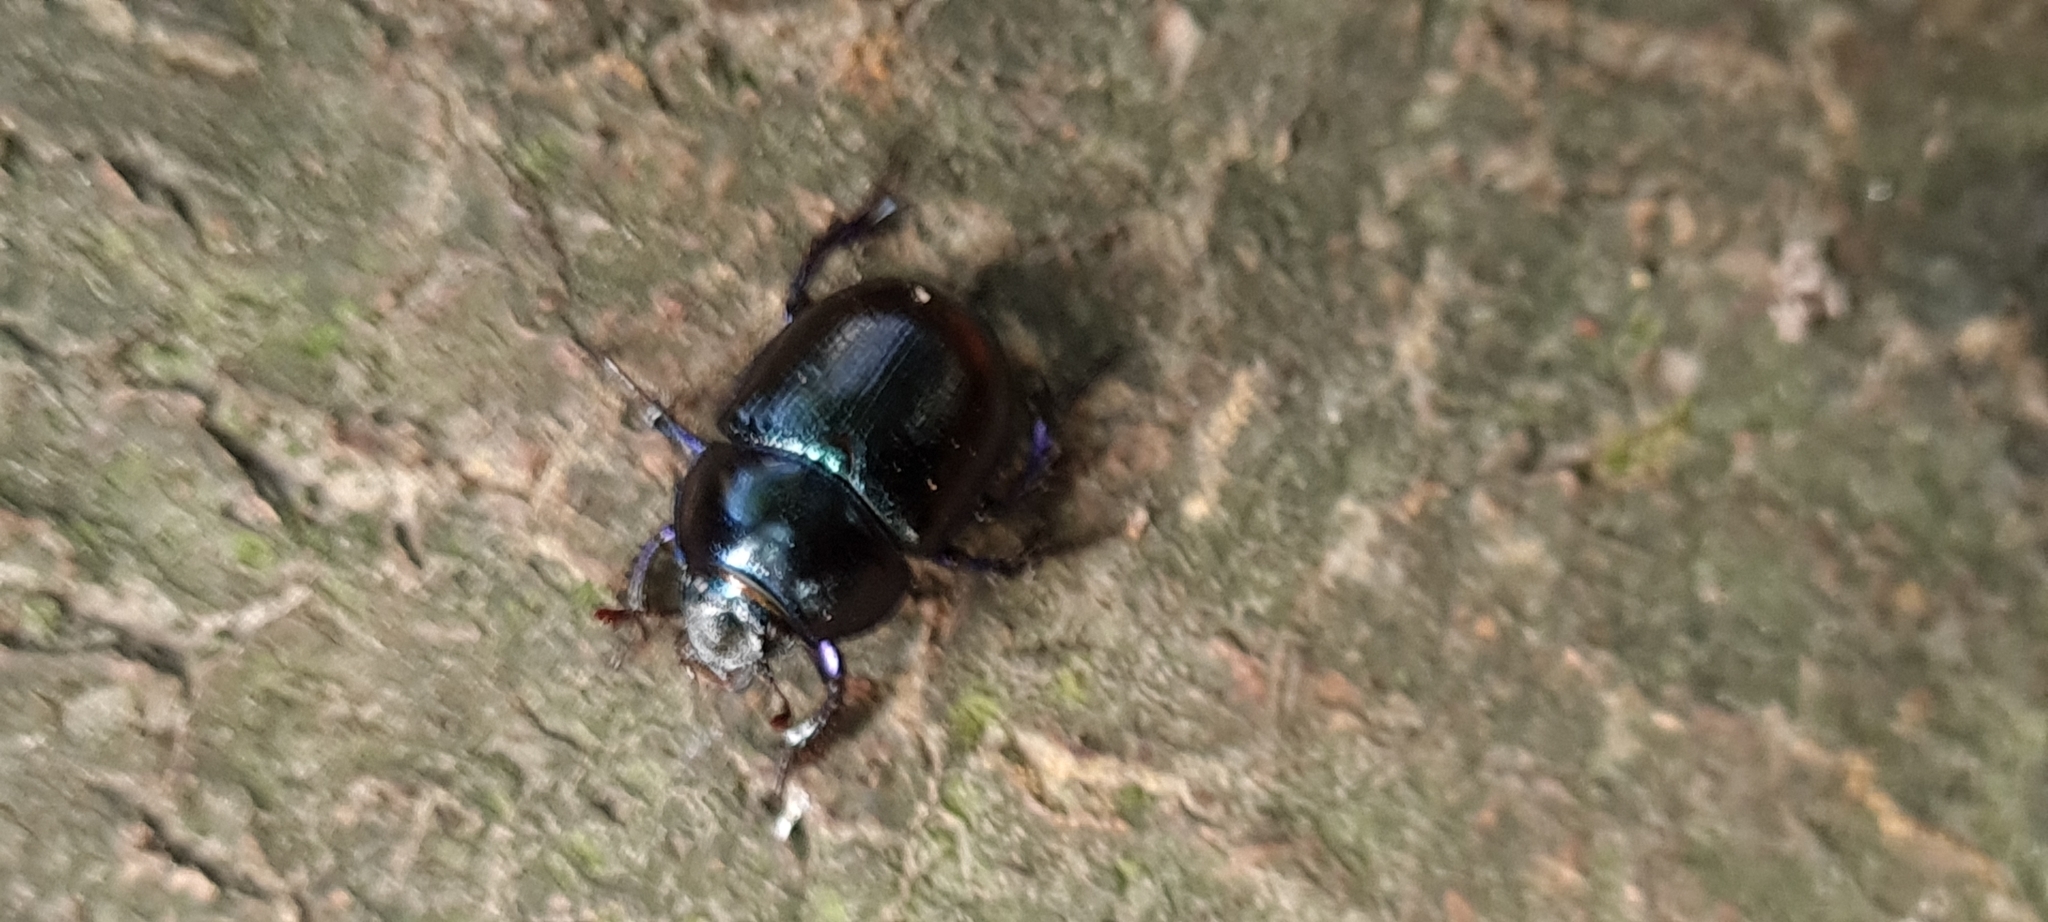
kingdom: Animalia
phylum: Arthropoda
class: Insecta
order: Coleoptera
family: Geotrupidae
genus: Anoplotrupes
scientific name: Anoplotrupes stercorosus
